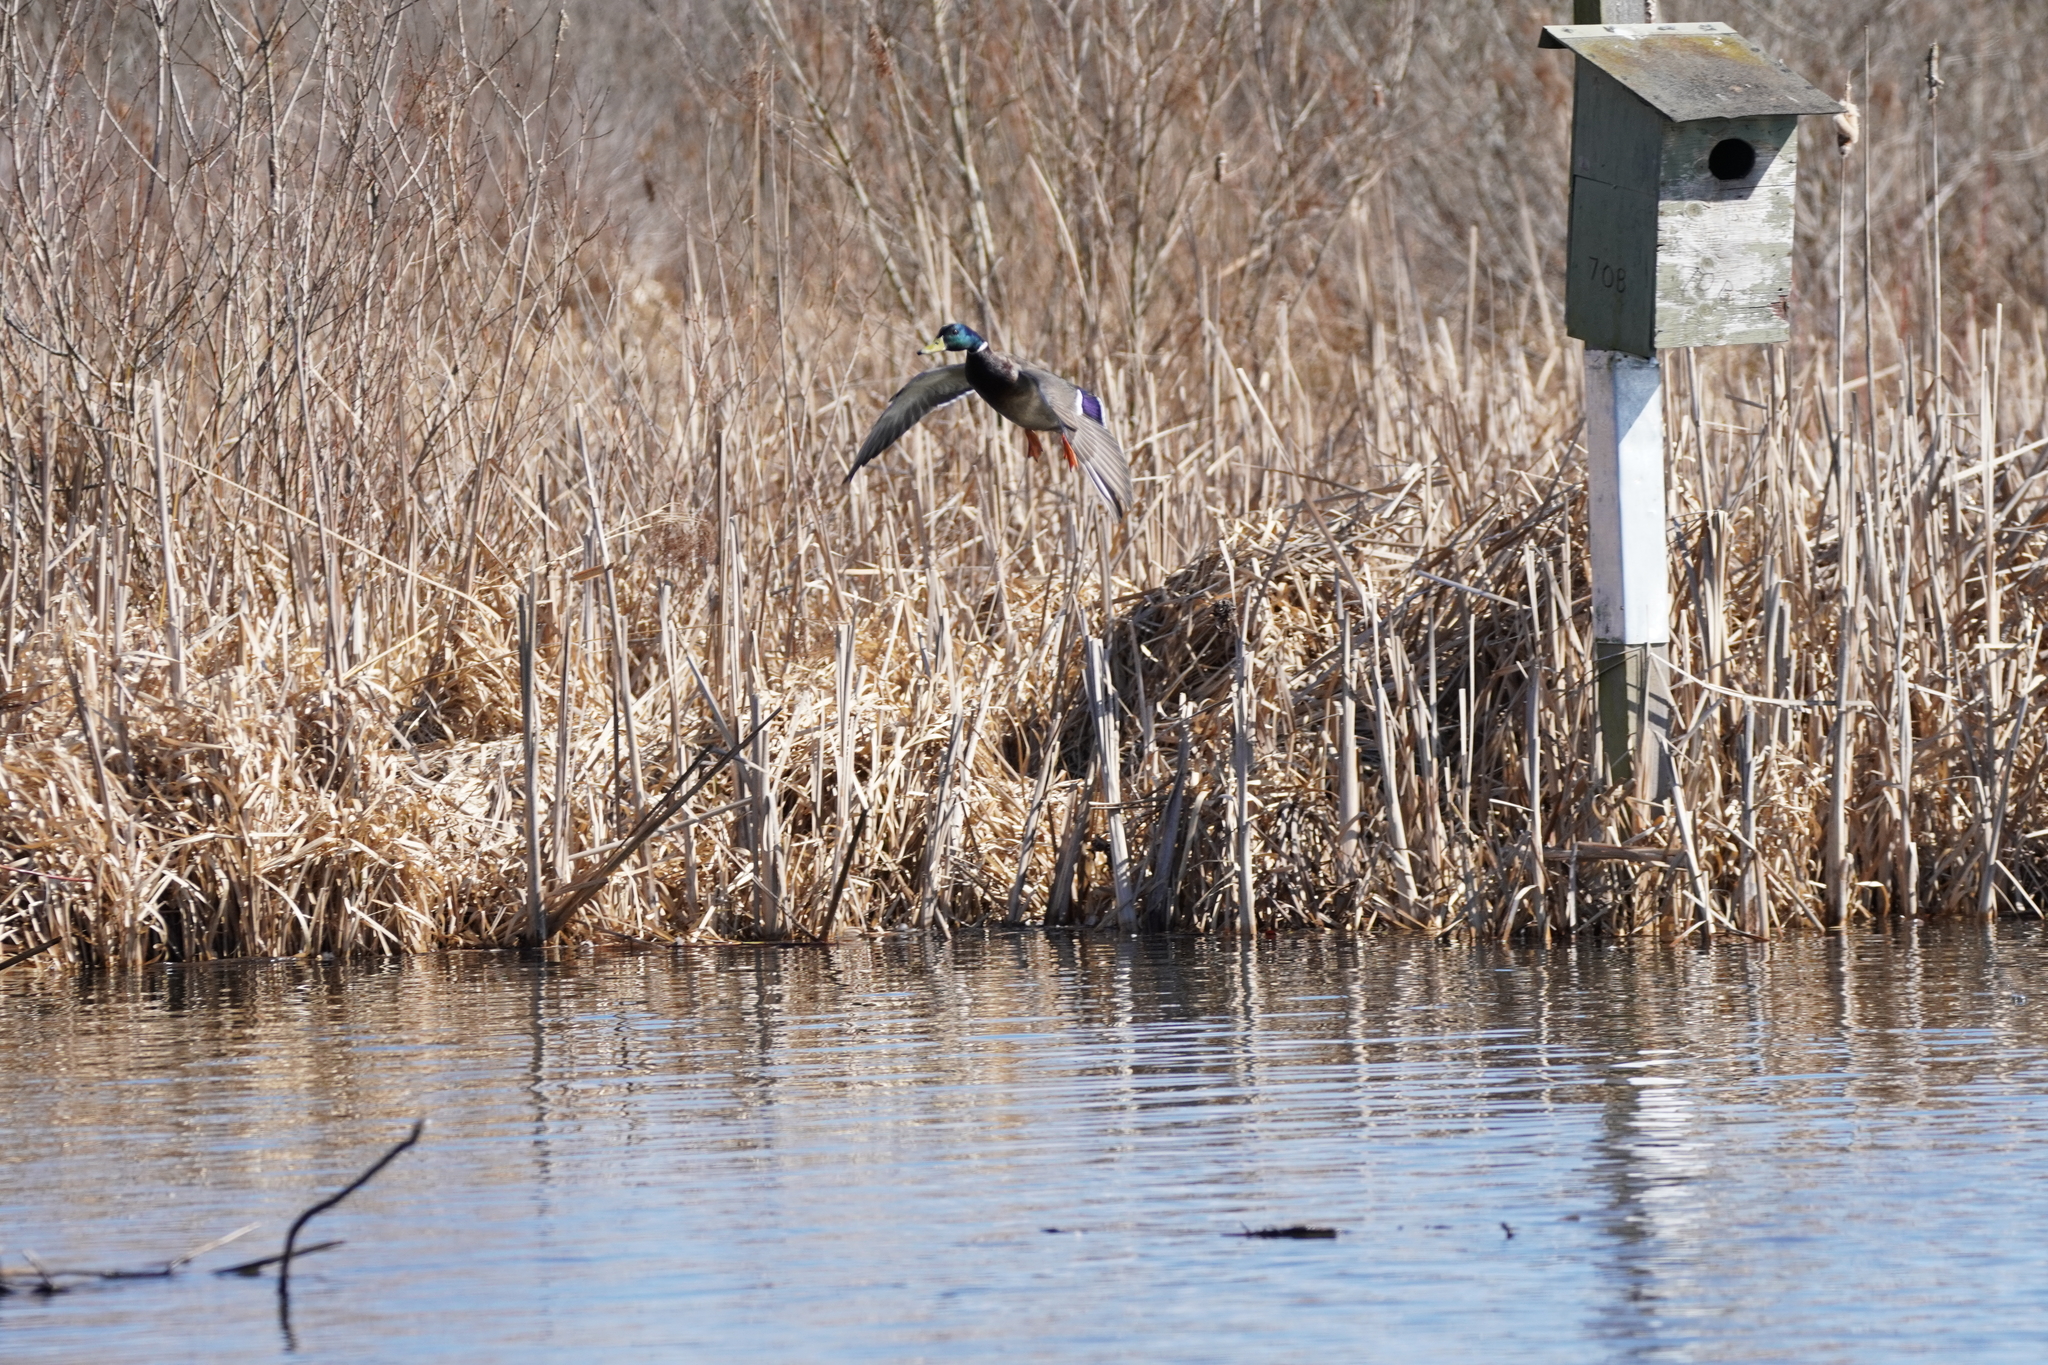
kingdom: Animalia
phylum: Chordata
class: Aves
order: Anseriformes
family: Anatidae
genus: Anas
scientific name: Anas platyrhynchos
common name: Mallard
